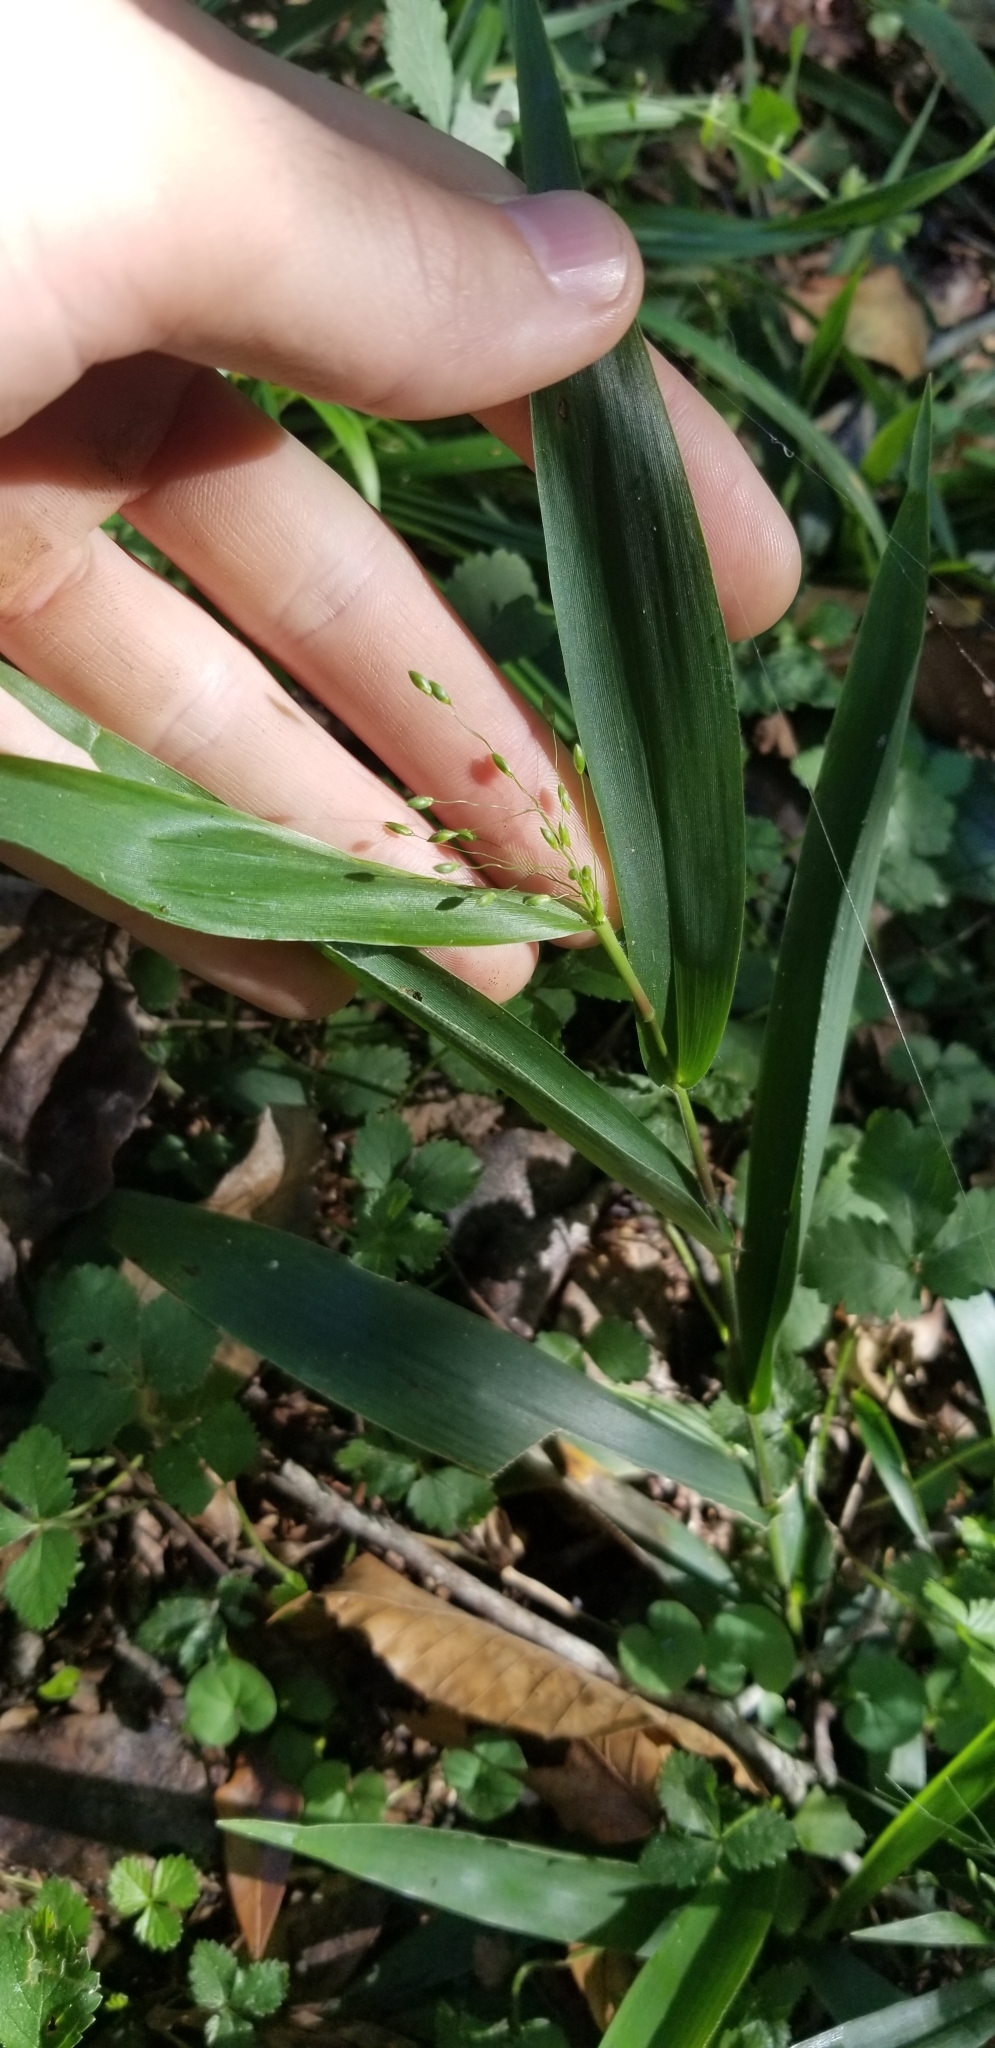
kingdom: Plantae
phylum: Tracheophyta
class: Liliopsida
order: Poales
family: Poaceae
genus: Dichanthelium
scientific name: Dichanthelium commutatum
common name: Variable witchgrass
